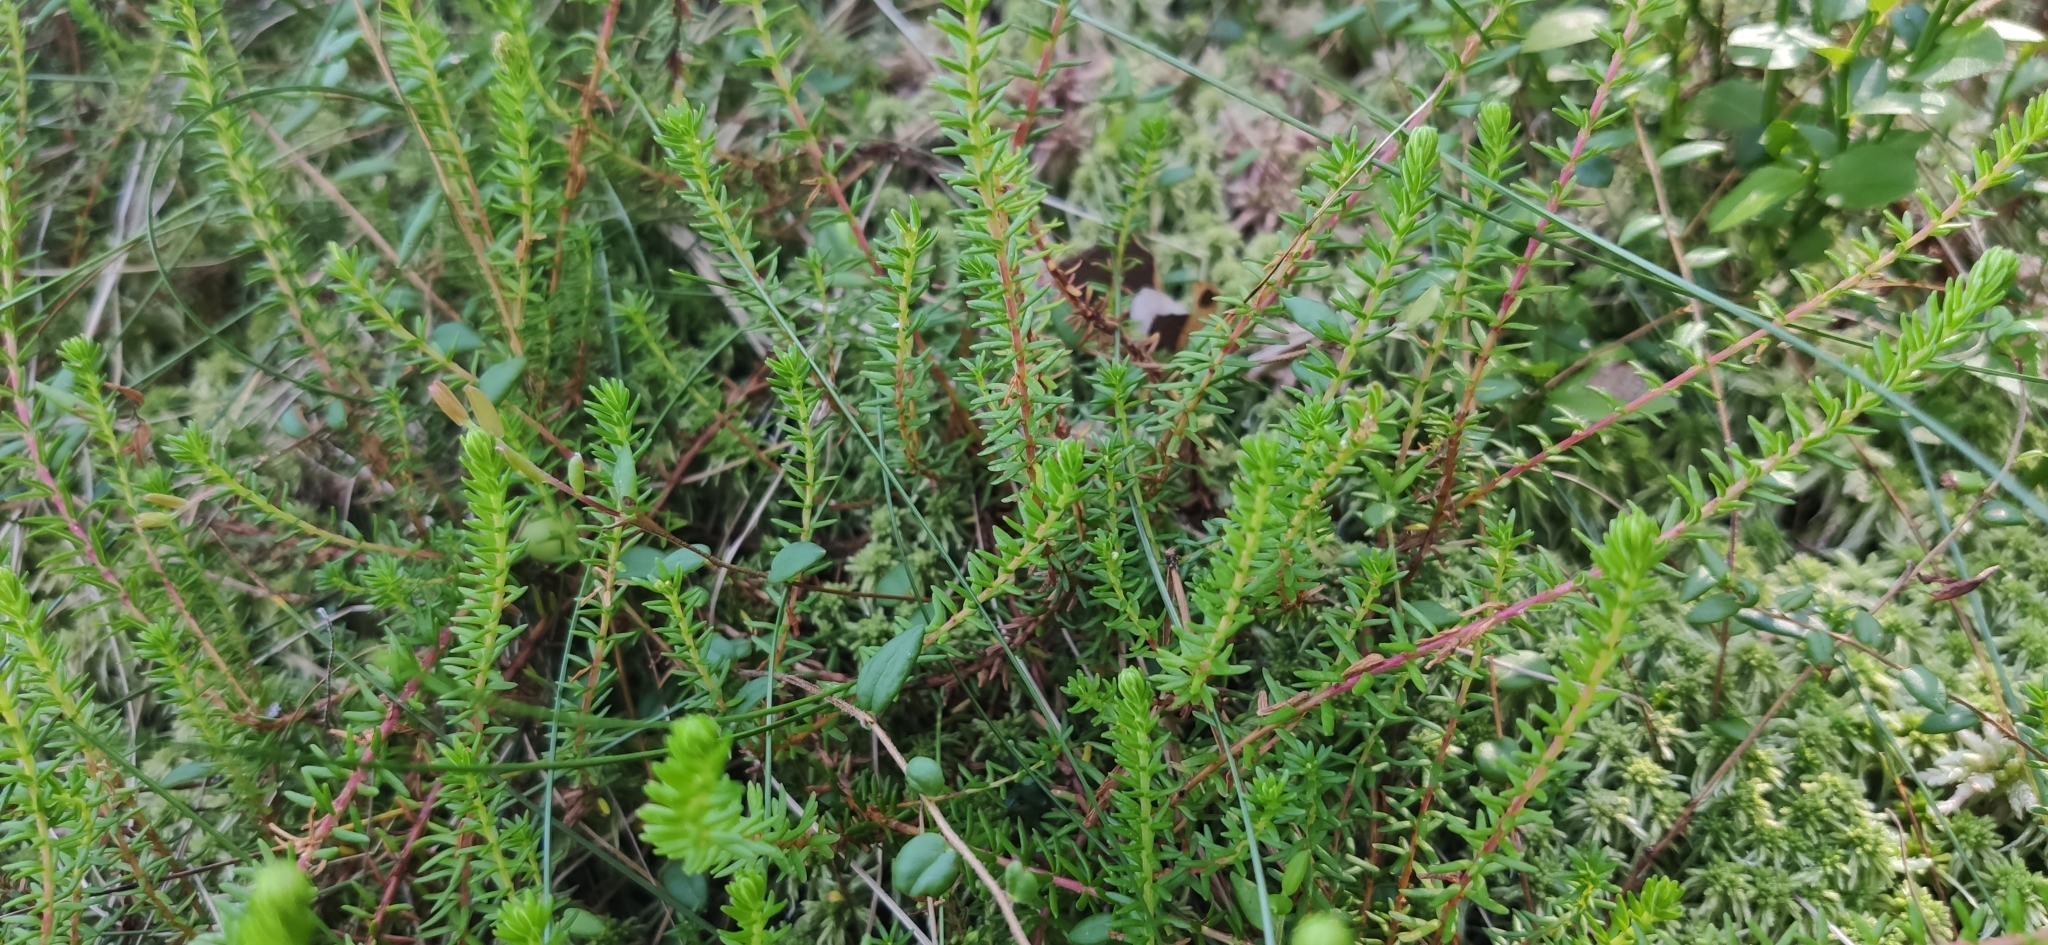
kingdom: Plantae
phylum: Tracheophyta
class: Magnoliopsida
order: Ericales
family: Ericaceae
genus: Empetrum
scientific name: Empetrum nigrum
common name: Black crowberry
